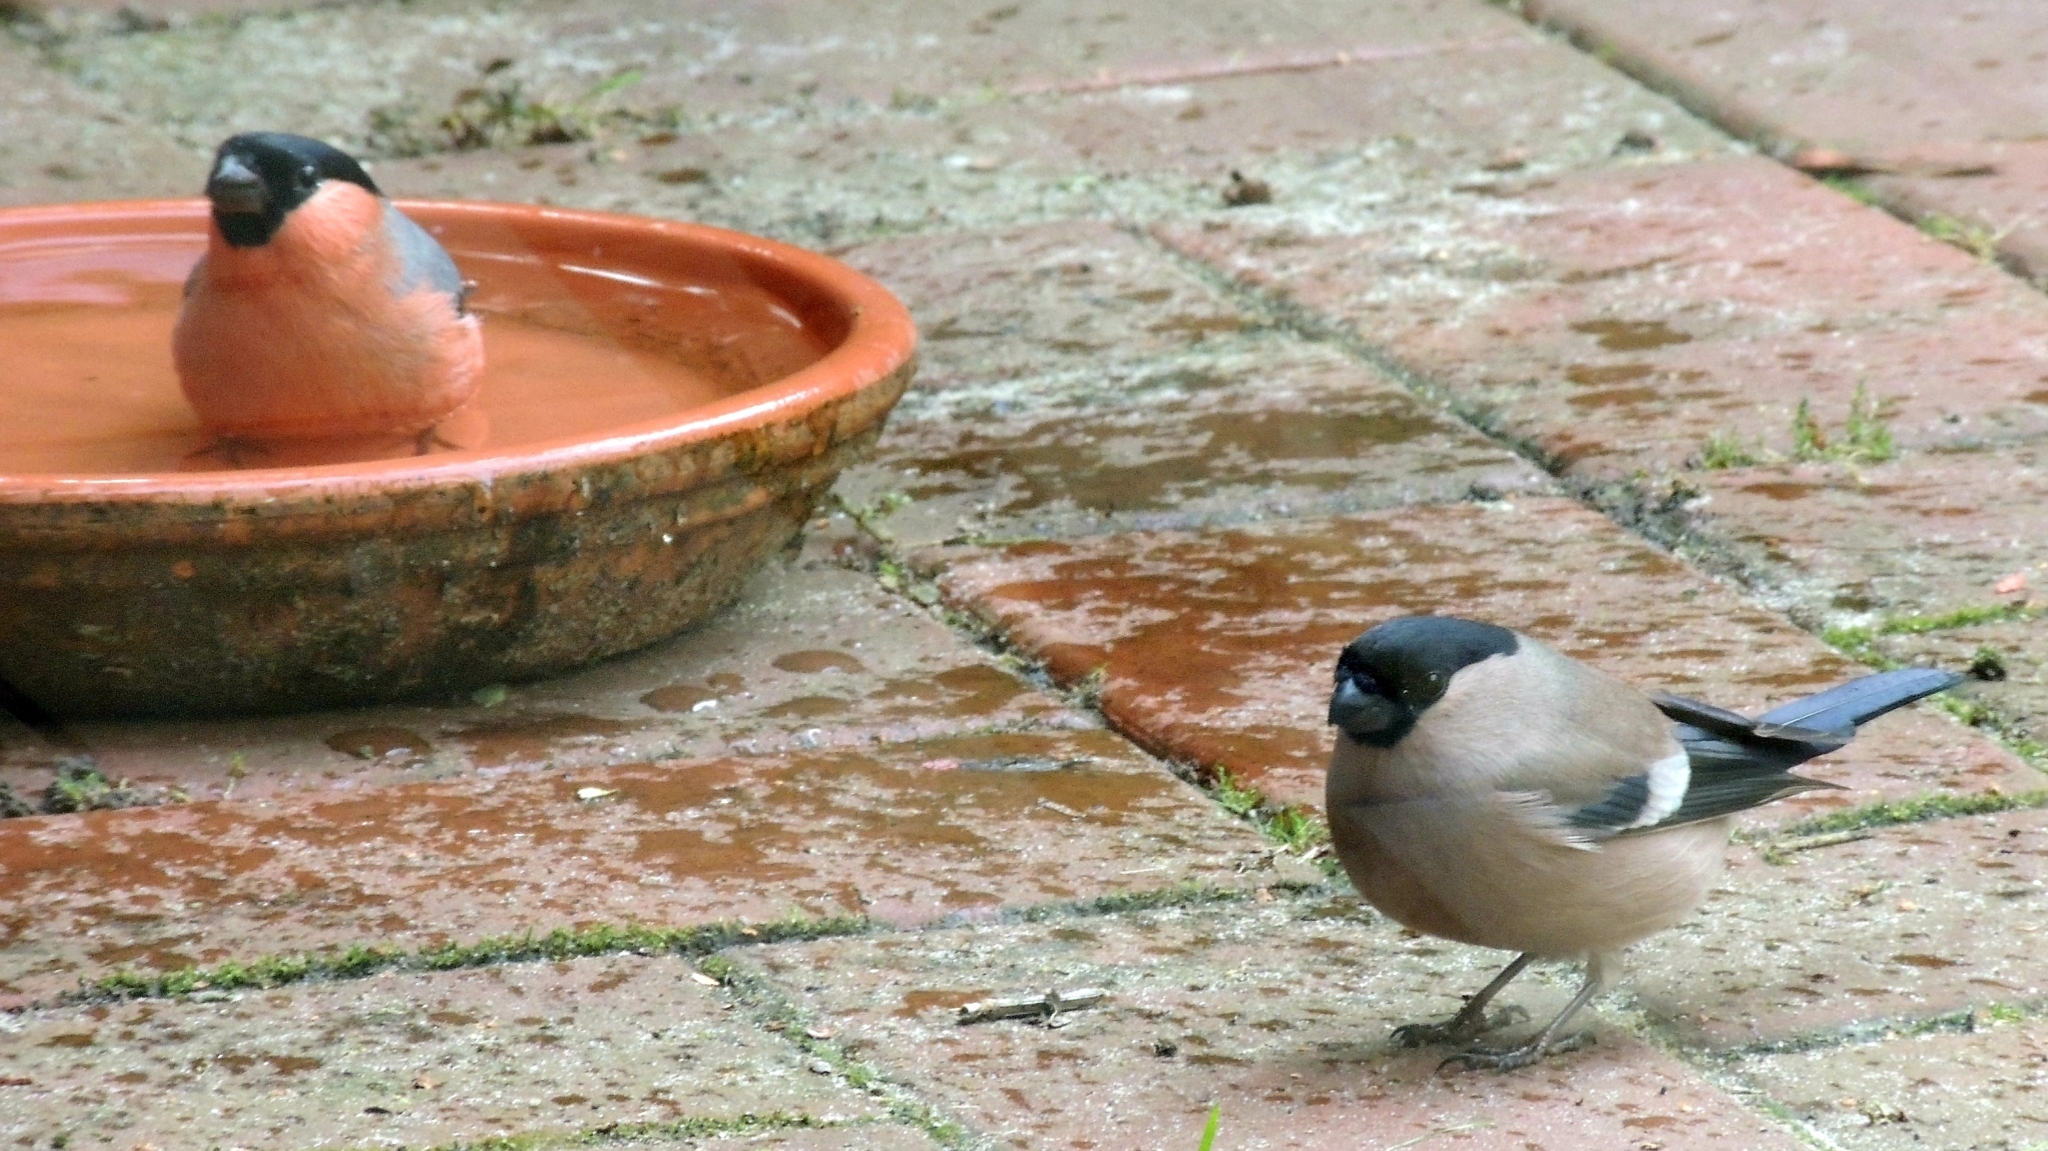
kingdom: Animalia
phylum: Chordata
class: Aves
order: Passeriformes
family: Fringillidae
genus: Pyrrhula
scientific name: Pyrrhula pyrrhula
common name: Eurasian bullfinch
